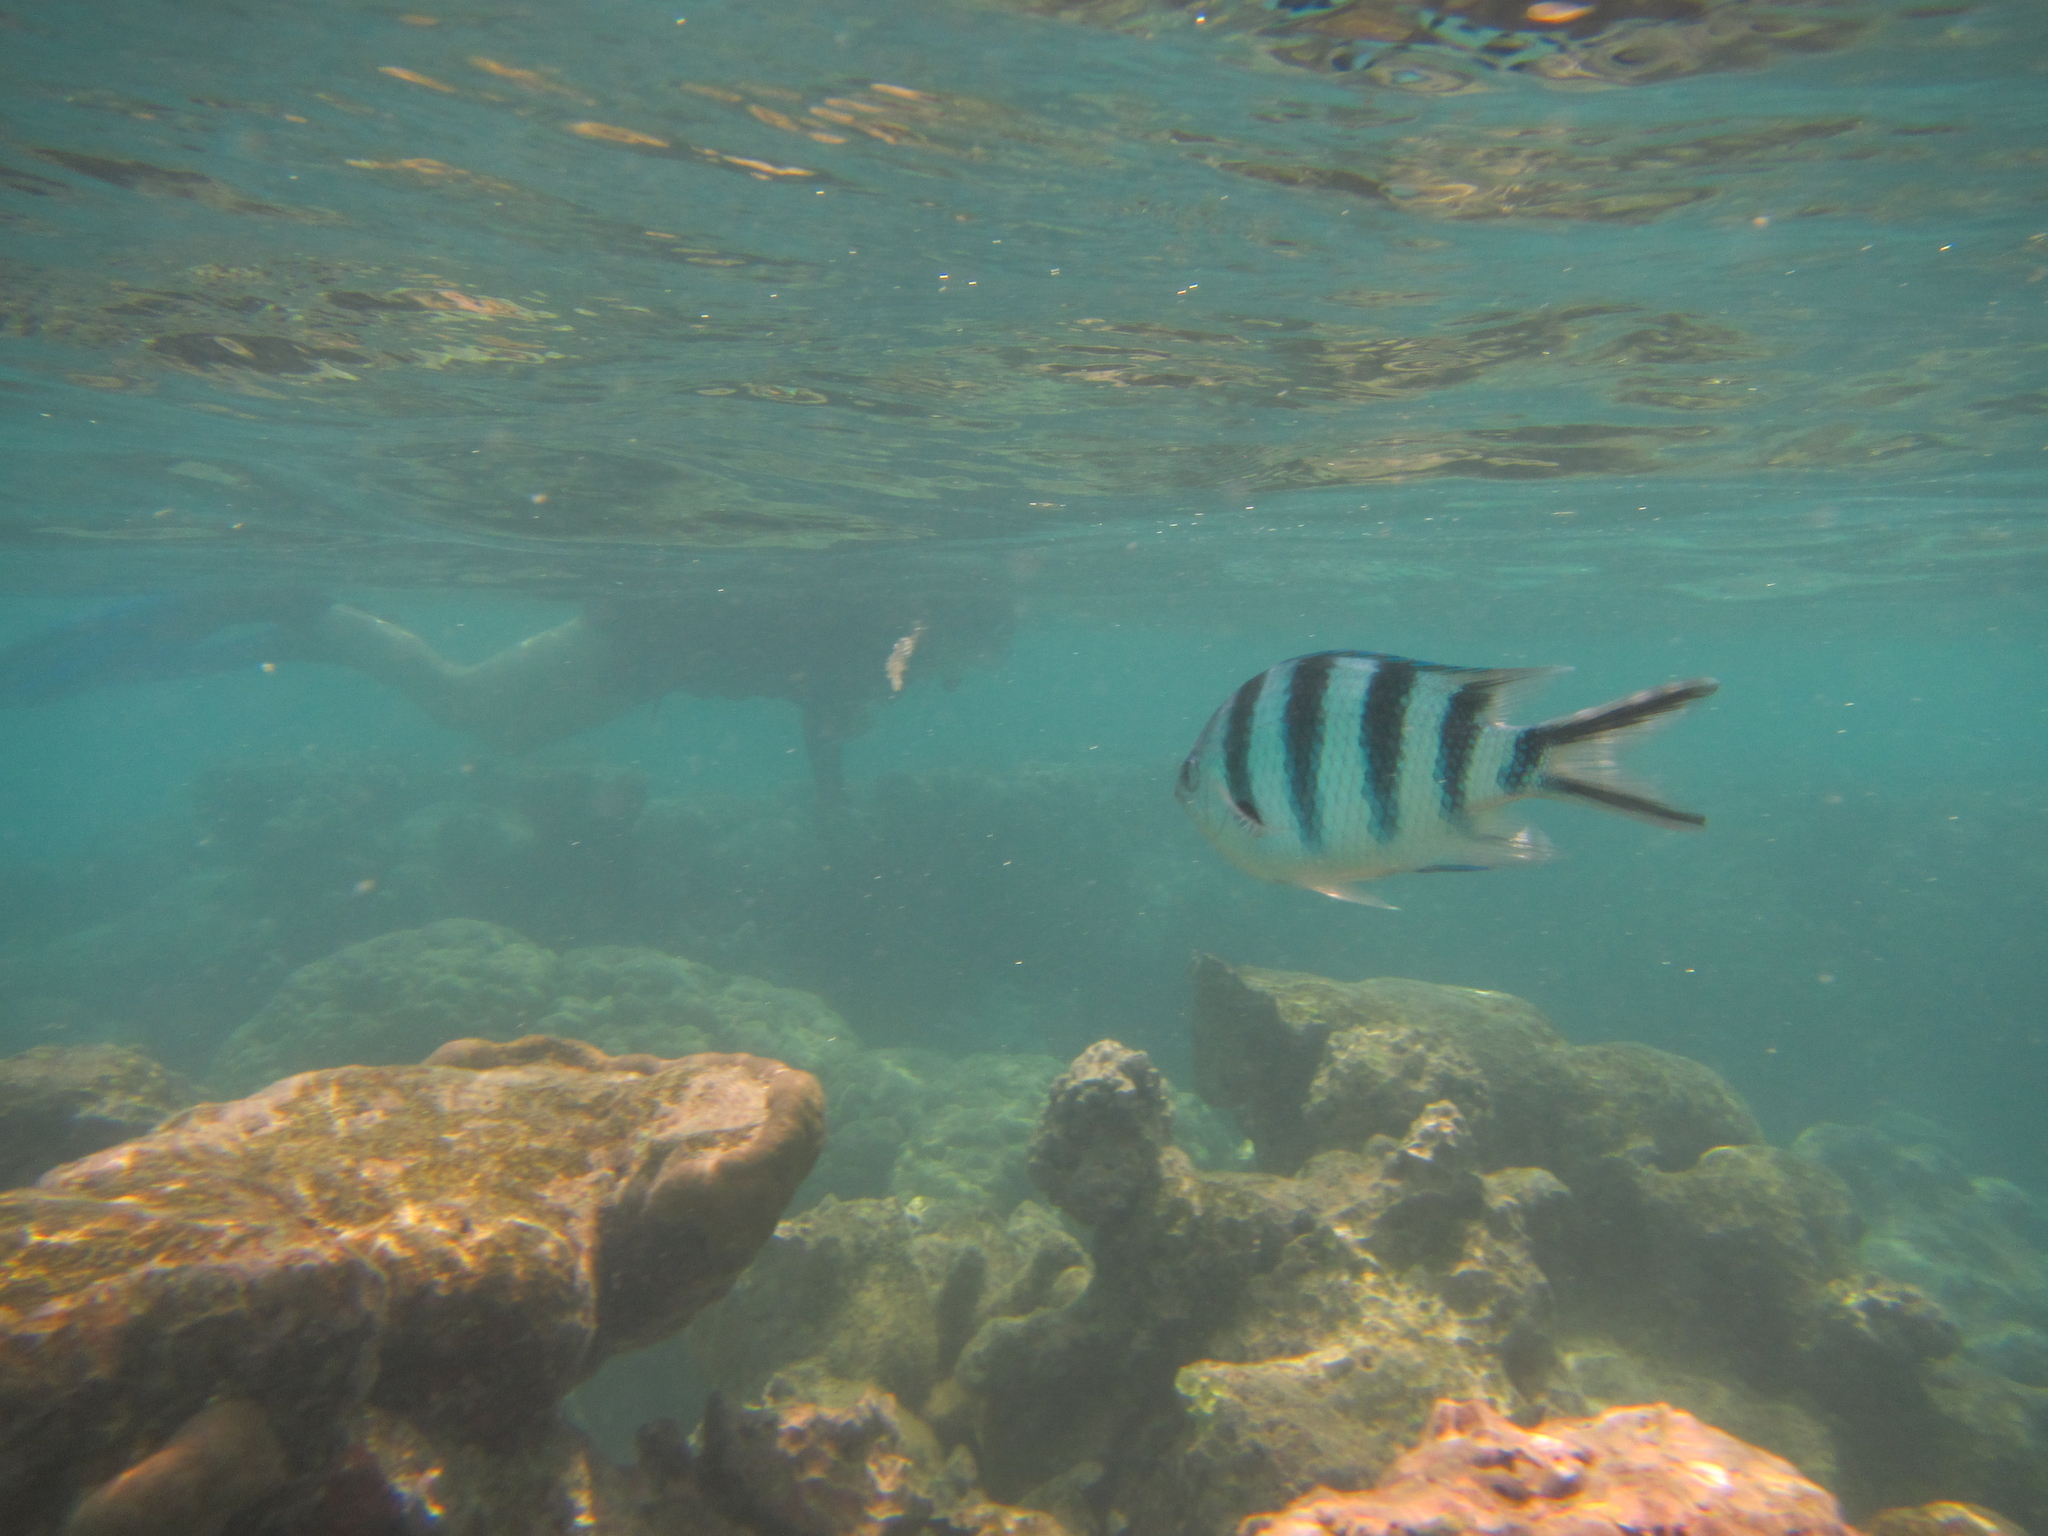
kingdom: Animalia
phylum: Chordata
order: Perciformes
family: Pomacentridae
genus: Abudefduf
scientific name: Abudefduf sexfasciatus
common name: Scissortail sergeant
